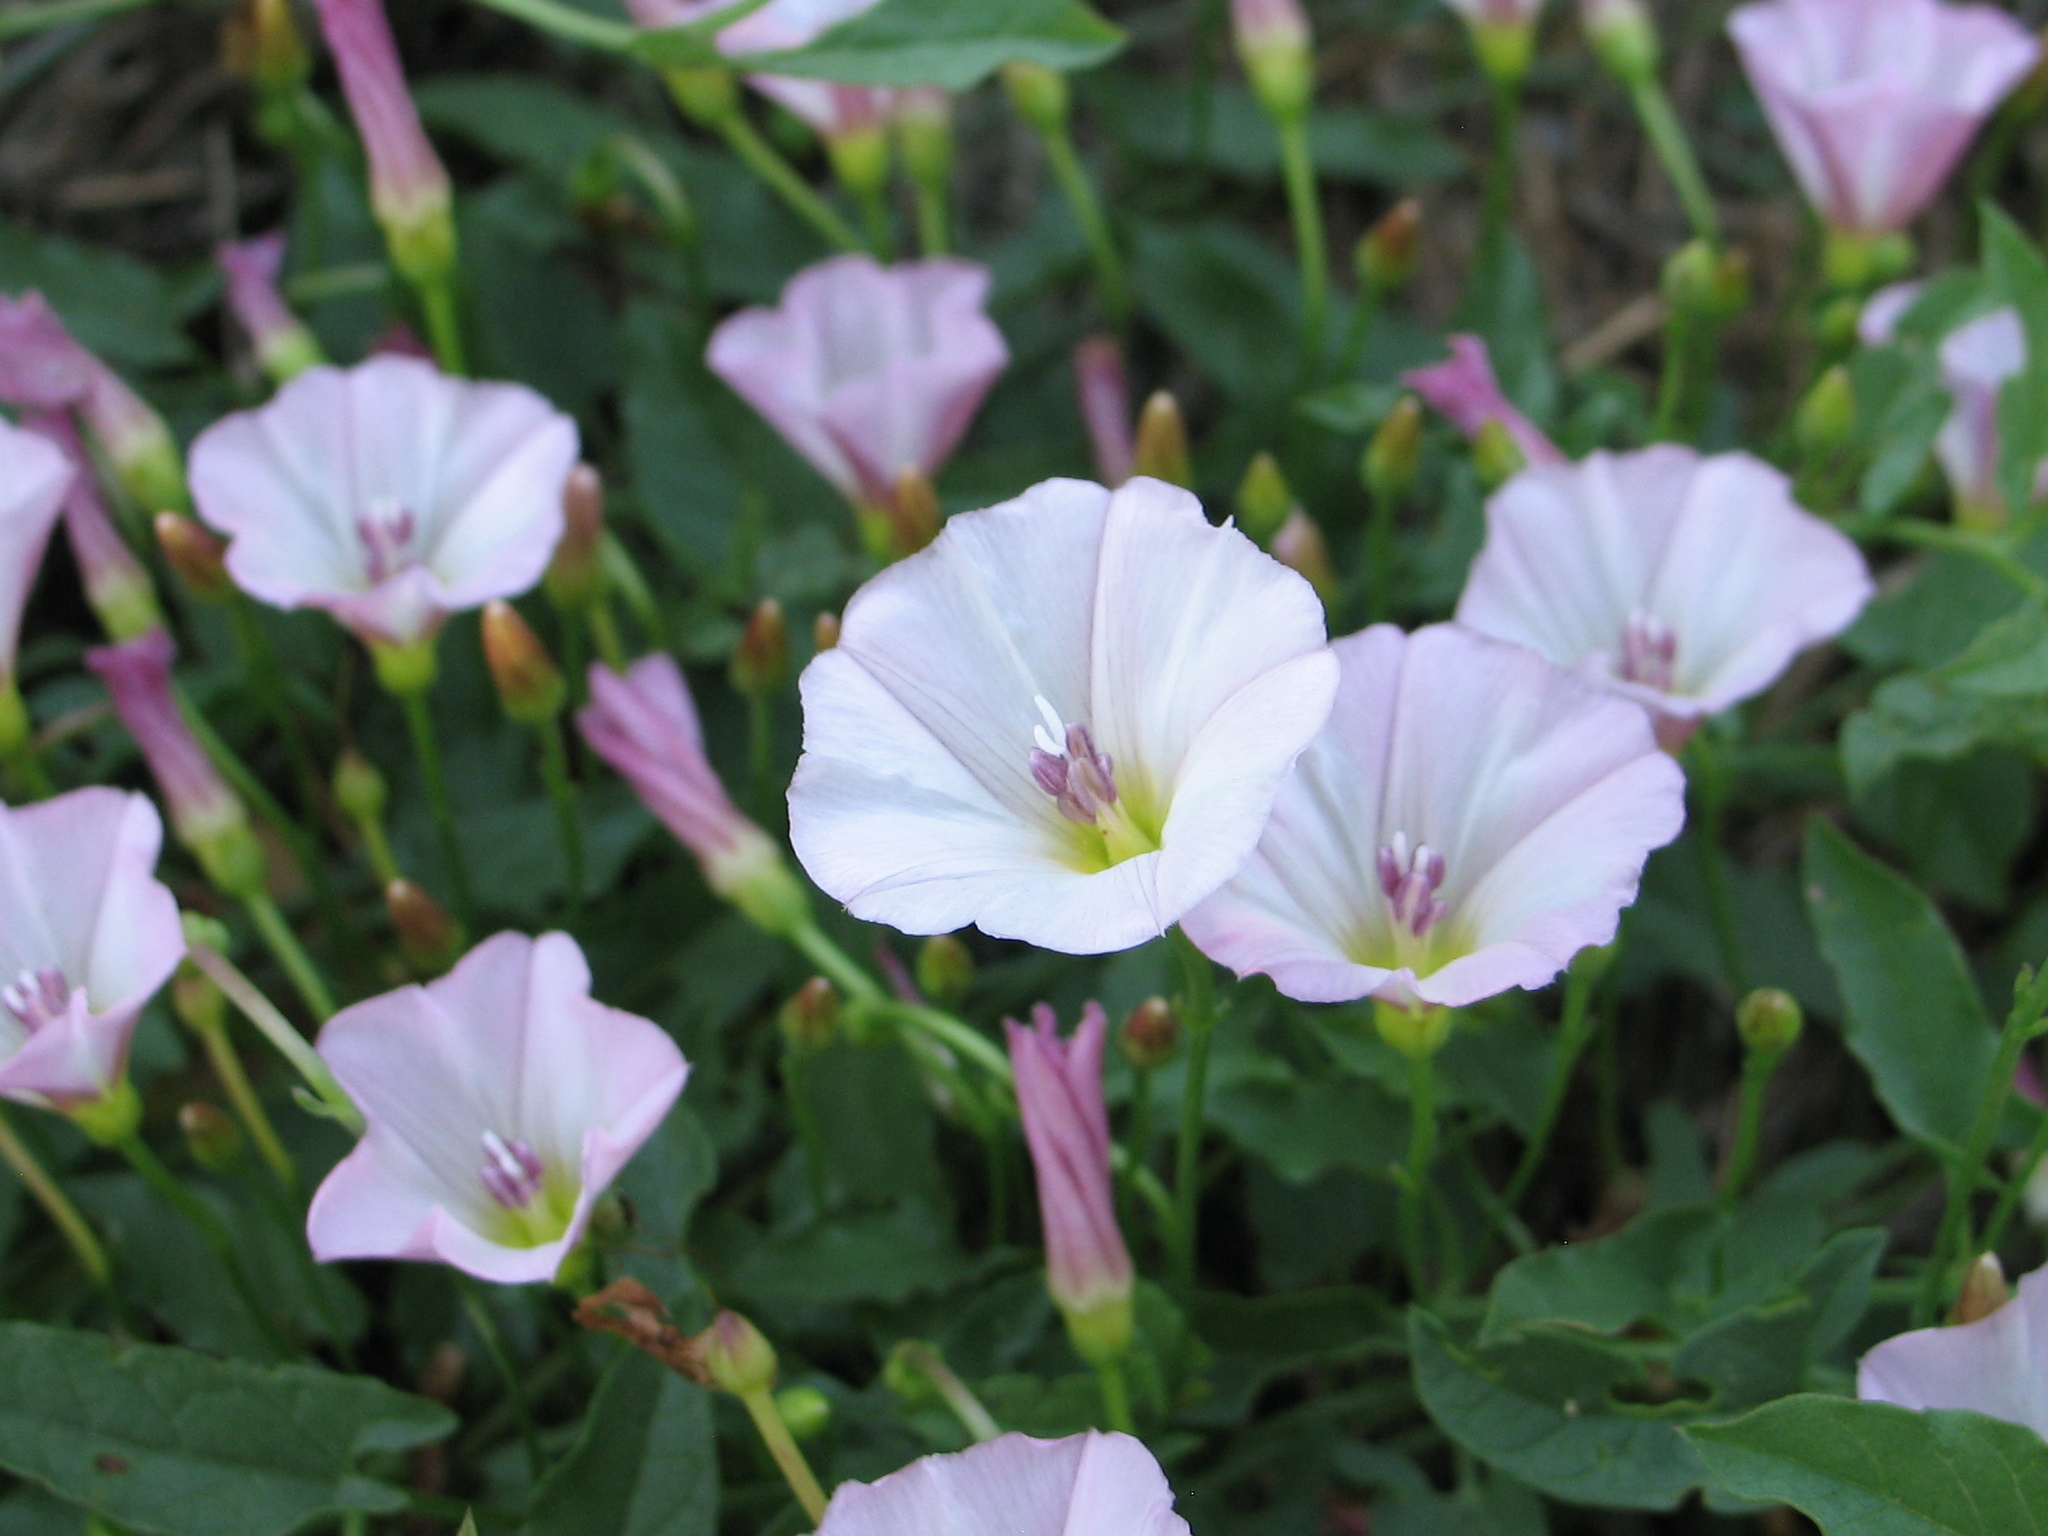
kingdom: Plantae
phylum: Tracheophyta
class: Magnoliopsida
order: Solanales
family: Convolvulaceae
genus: Convolvulus
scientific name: Convolvulus arvensis
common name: Field bindweed
